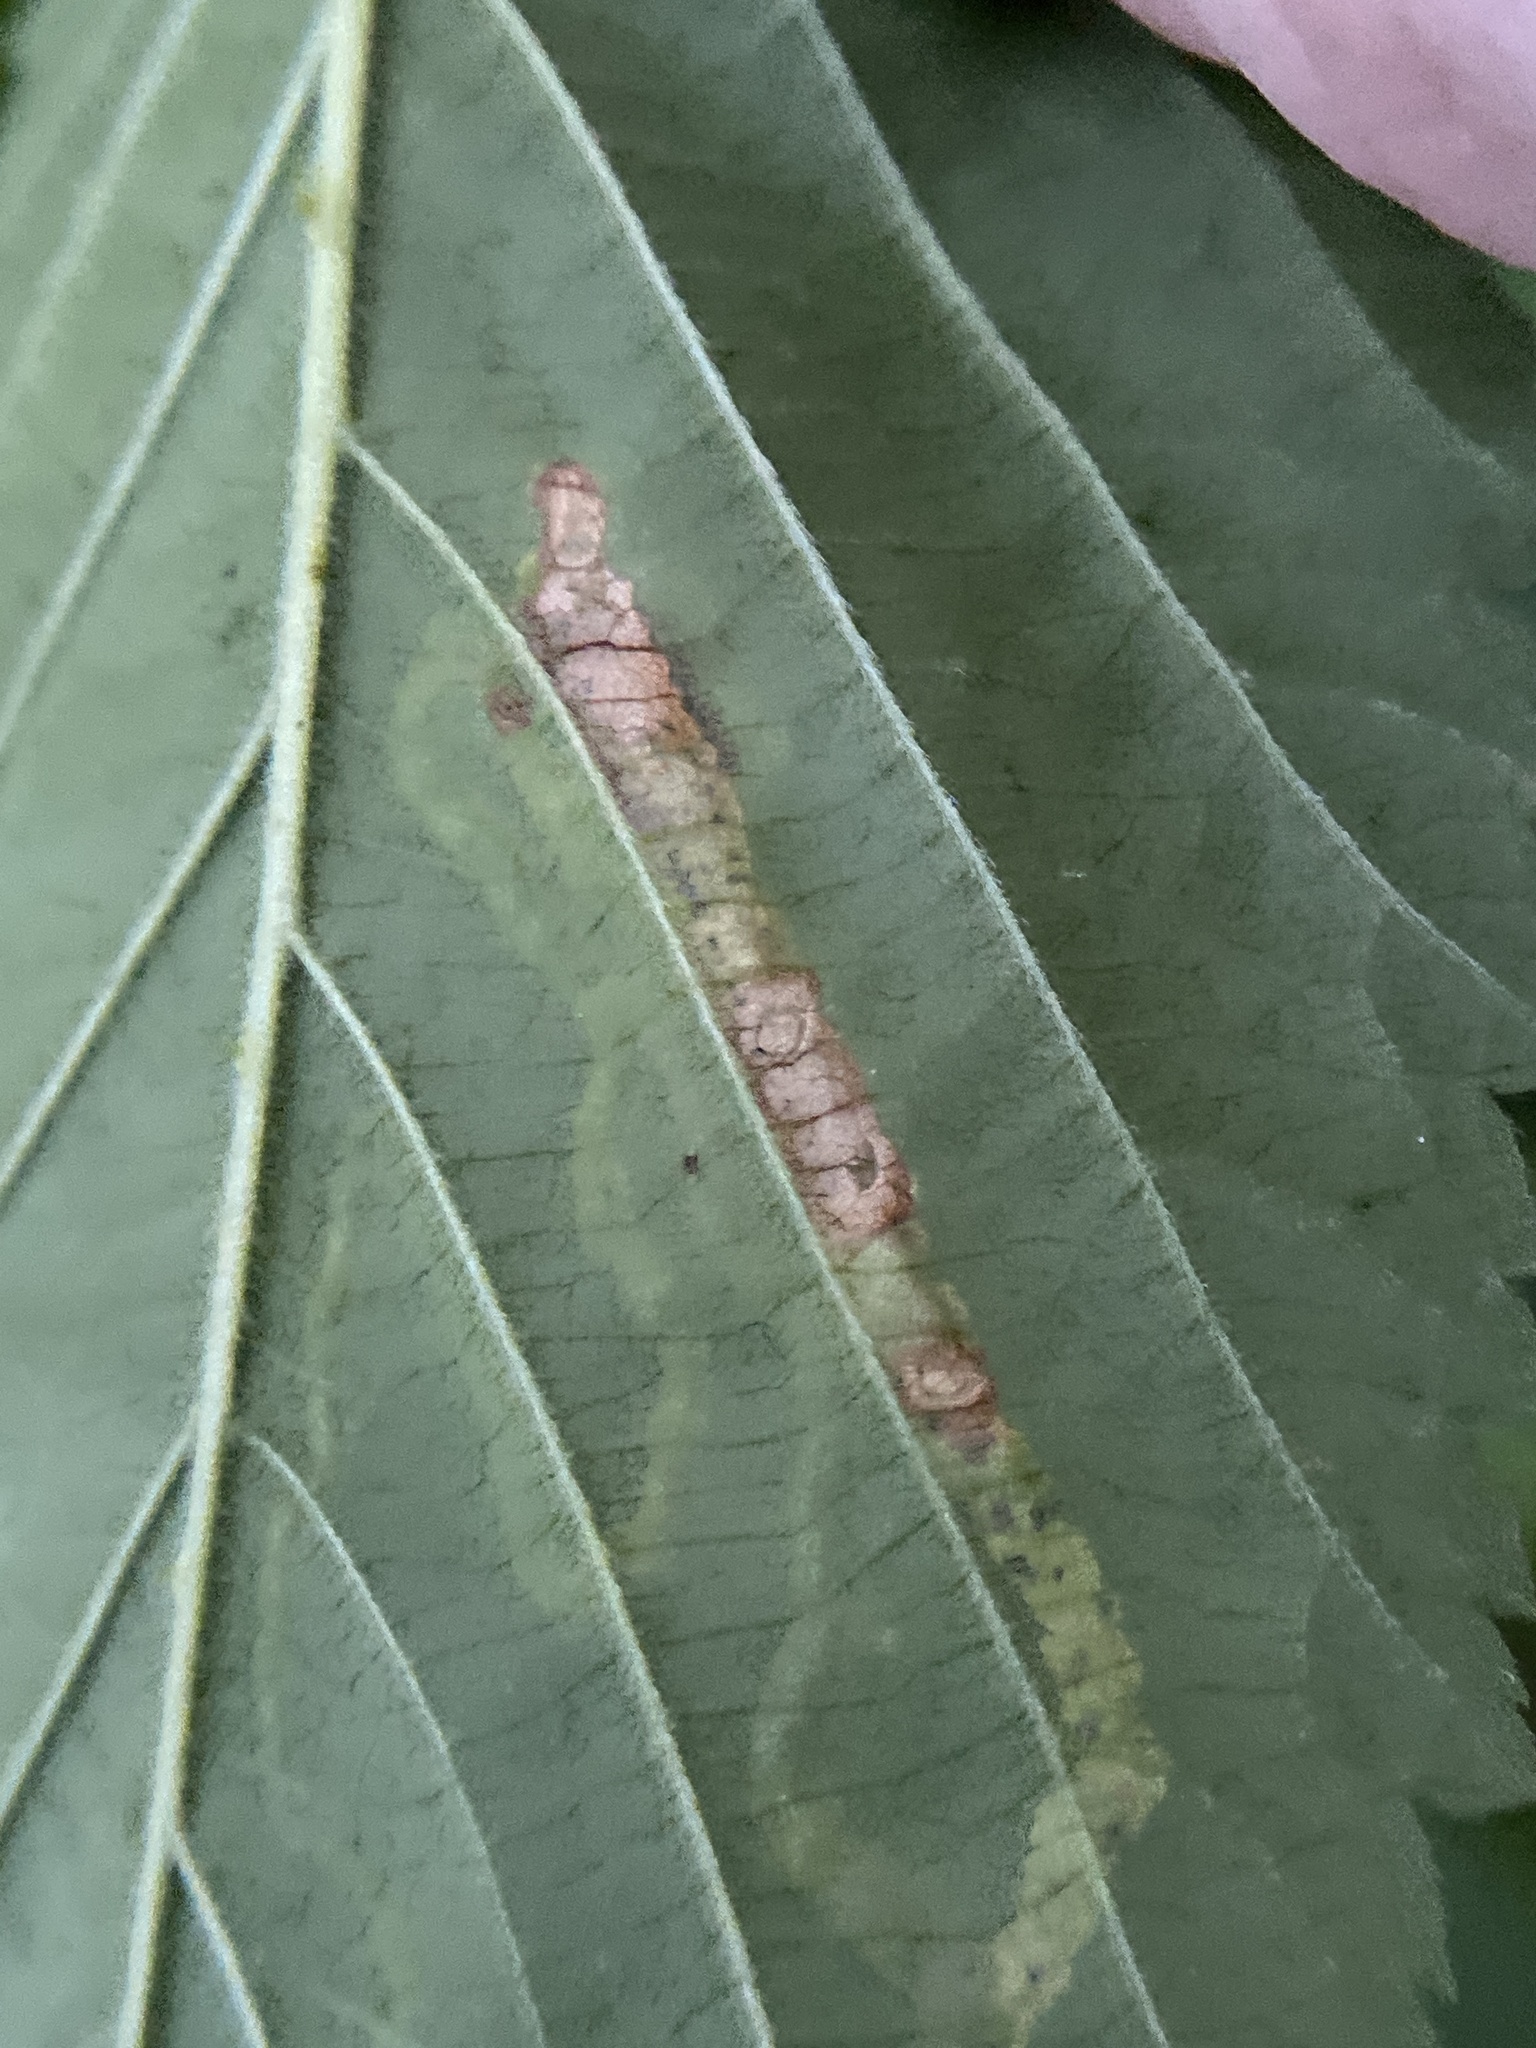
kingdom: Animalia
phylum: Arthropoda
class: Insecta
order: Diptera
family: Agromyzidae
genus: Agromyza
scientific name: Agromyza vockerothi
